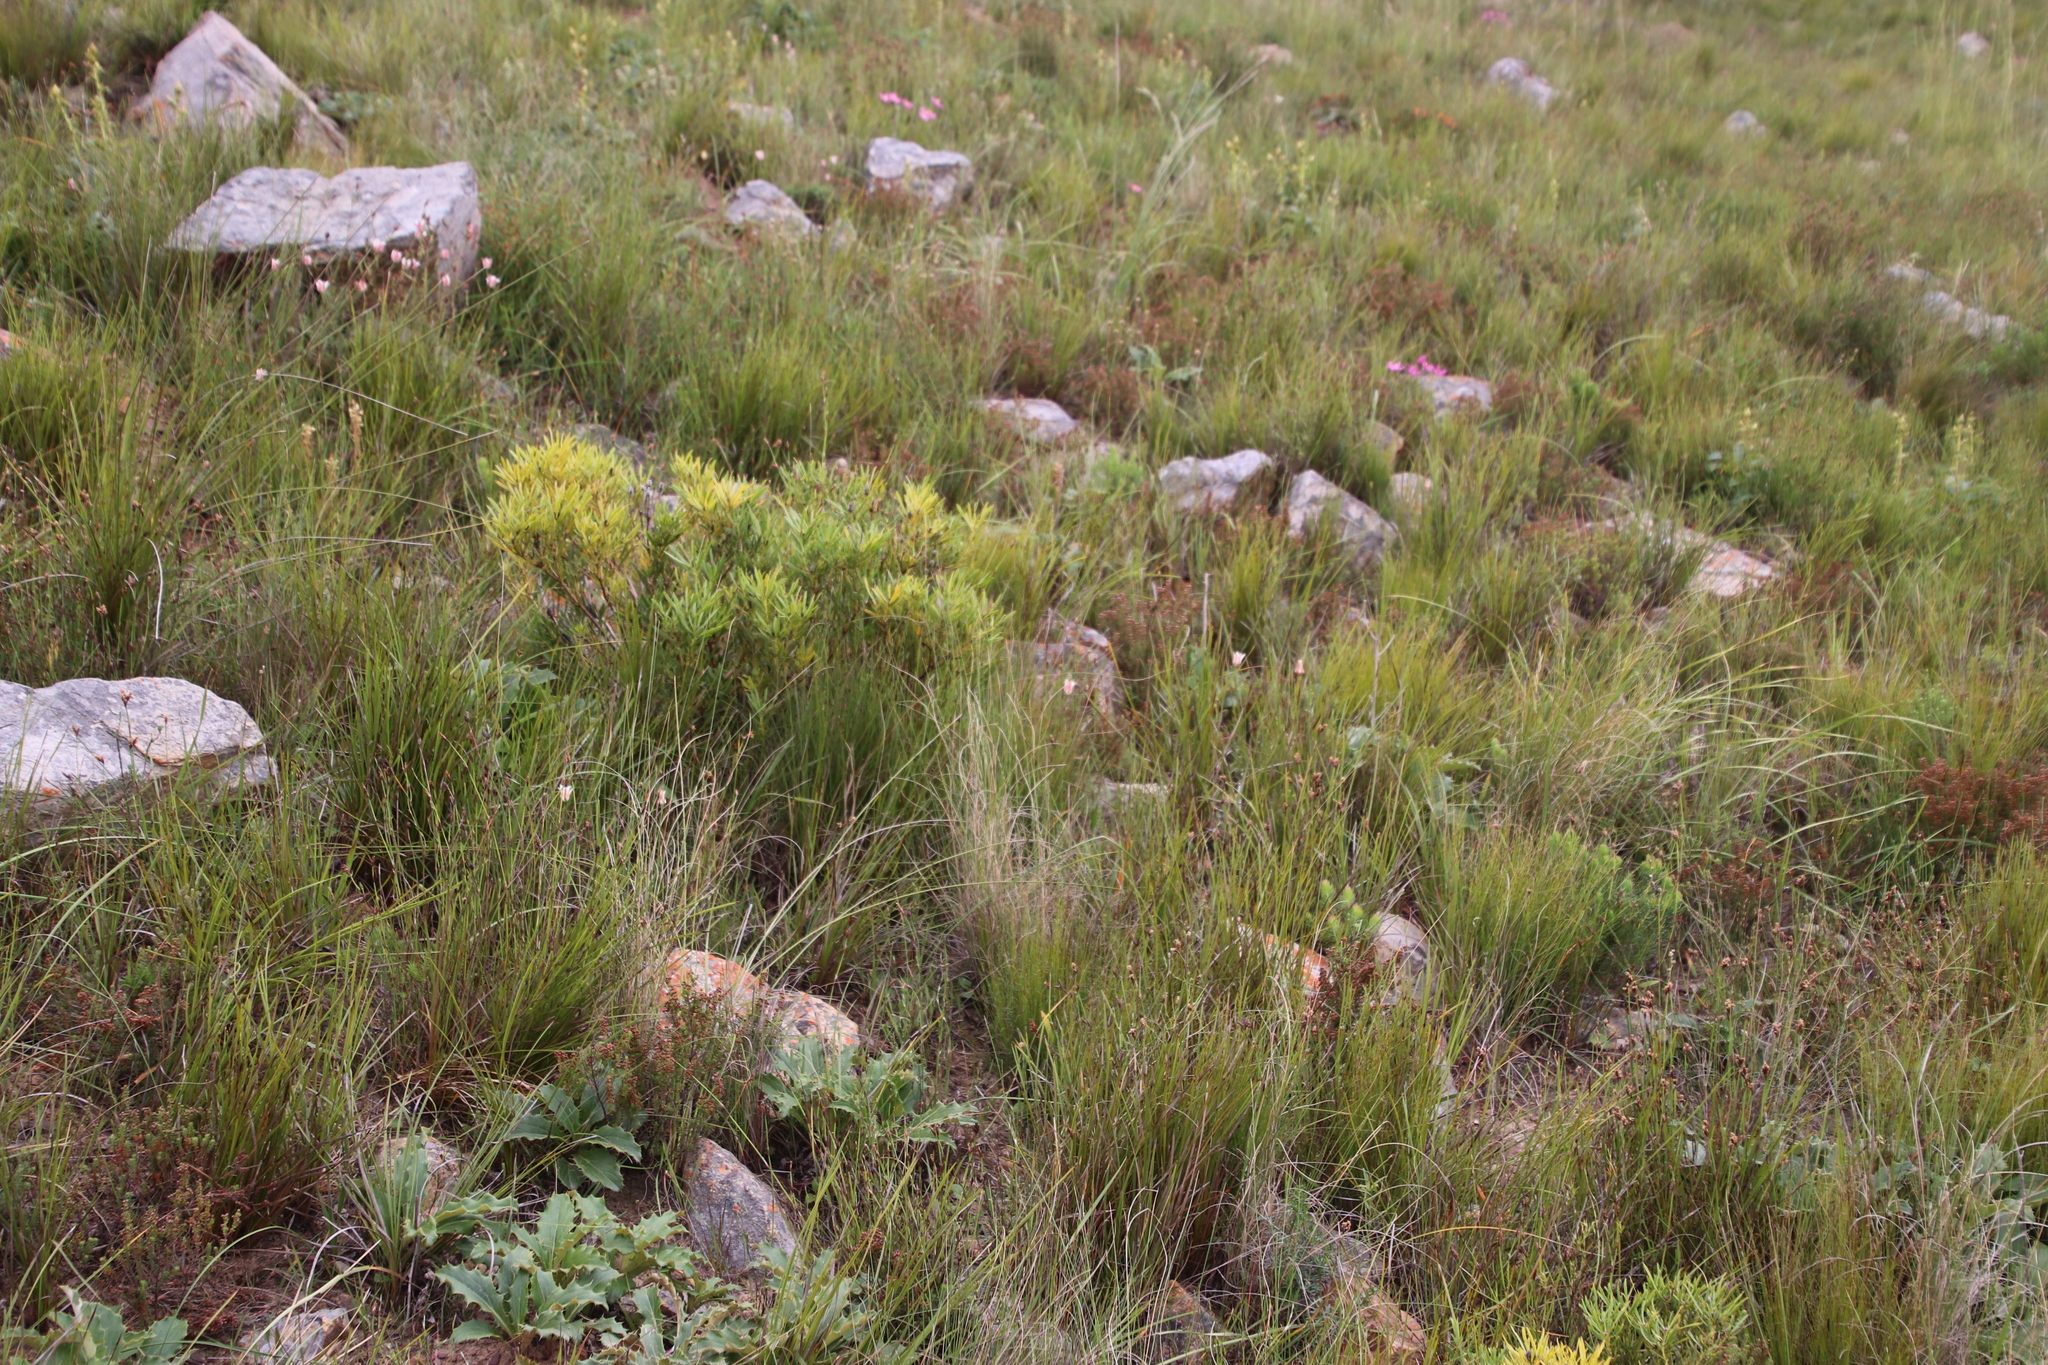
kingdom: Plantae
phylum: Tracheophyta
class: Magnoliopsida
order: Proteales
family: Proteaceae
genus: Leucadendron
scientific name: Leucadendron salignum
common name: Common sunshine conebush
